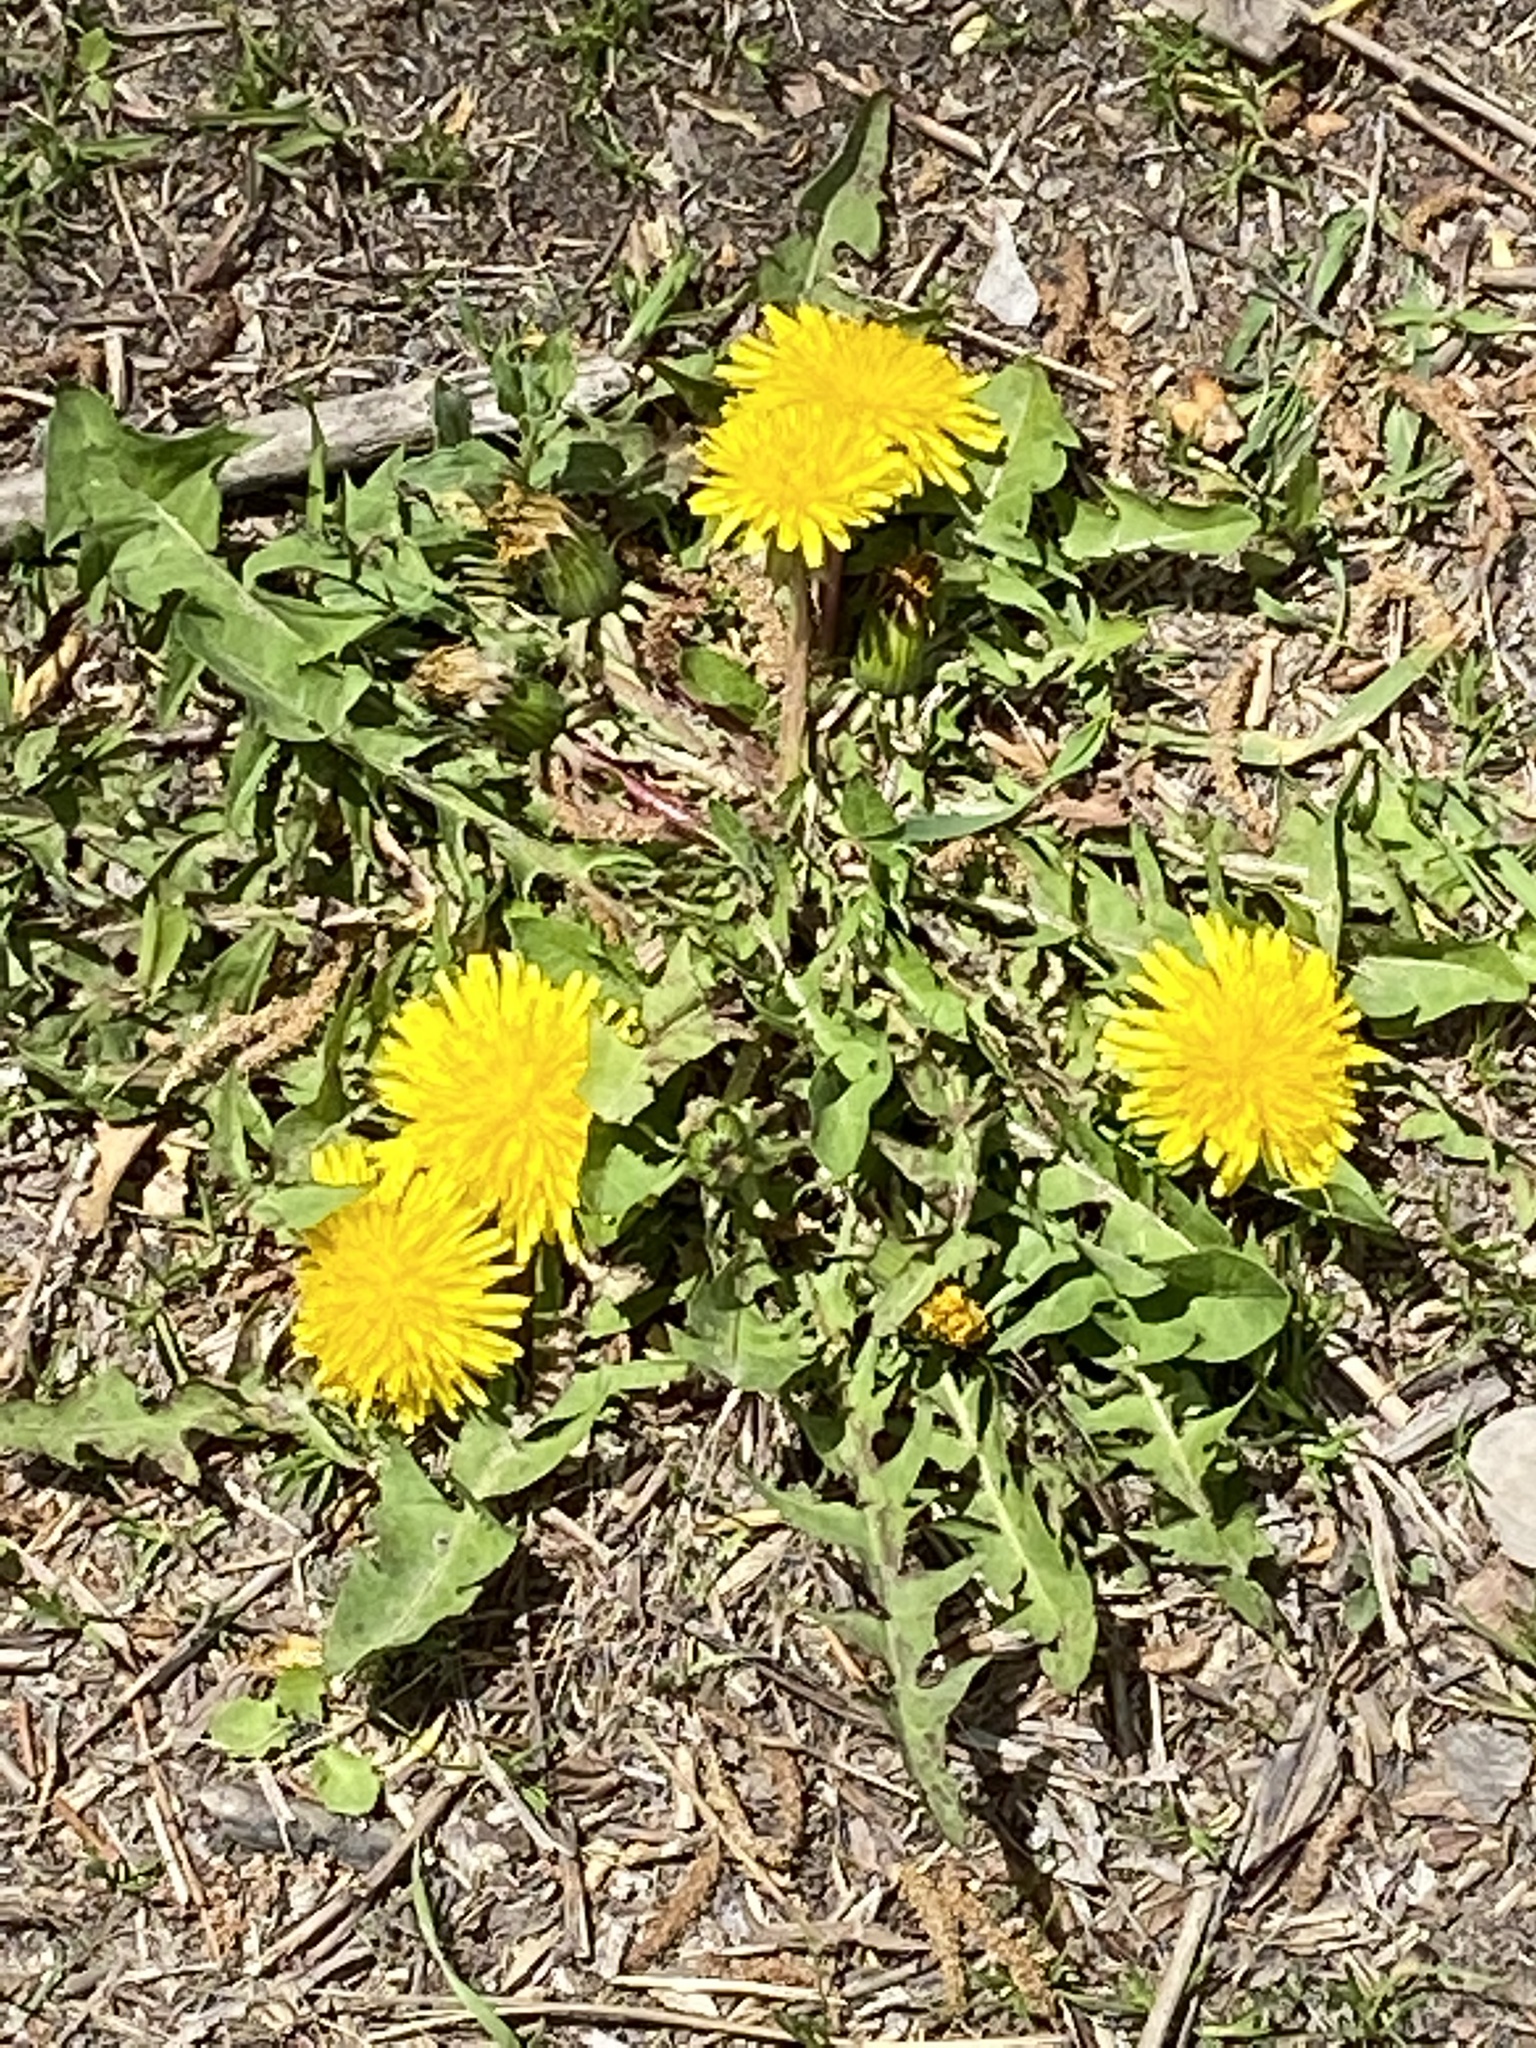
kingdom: Plantae
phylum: Tracheophyta
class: Magnoliopsida
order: Asterales
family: Asteraceae
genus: Taraxacum
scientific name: Taraxacum officinale
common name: Common dandelion
